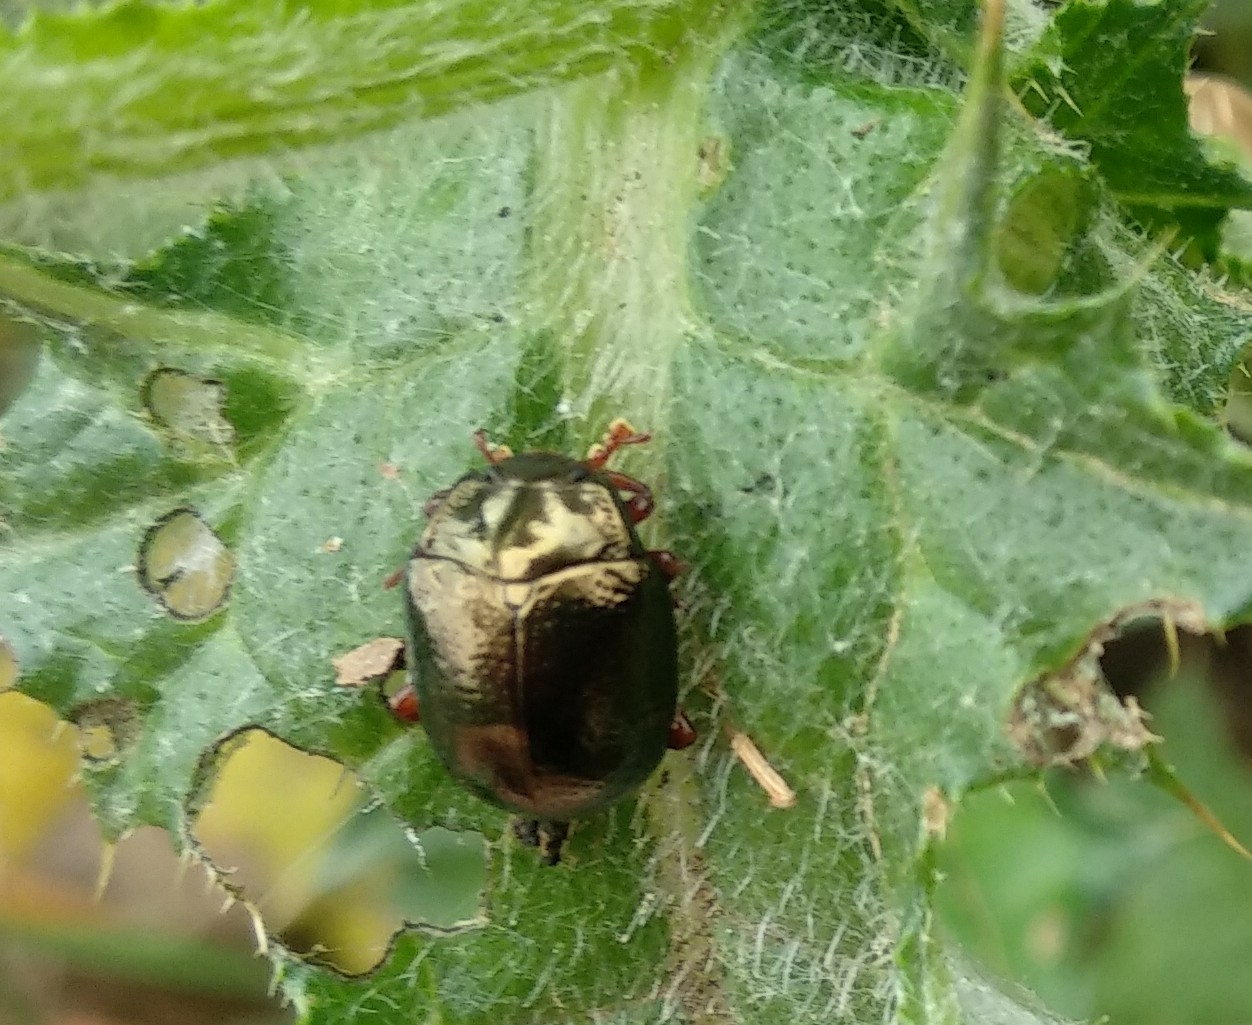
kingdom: Animalia
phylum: Arthropoda
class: Insecta
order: Coleoptera
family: Chrysomelidae
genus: Chrysolina
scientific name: Chrysolina bankii
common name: Leaf beetle
